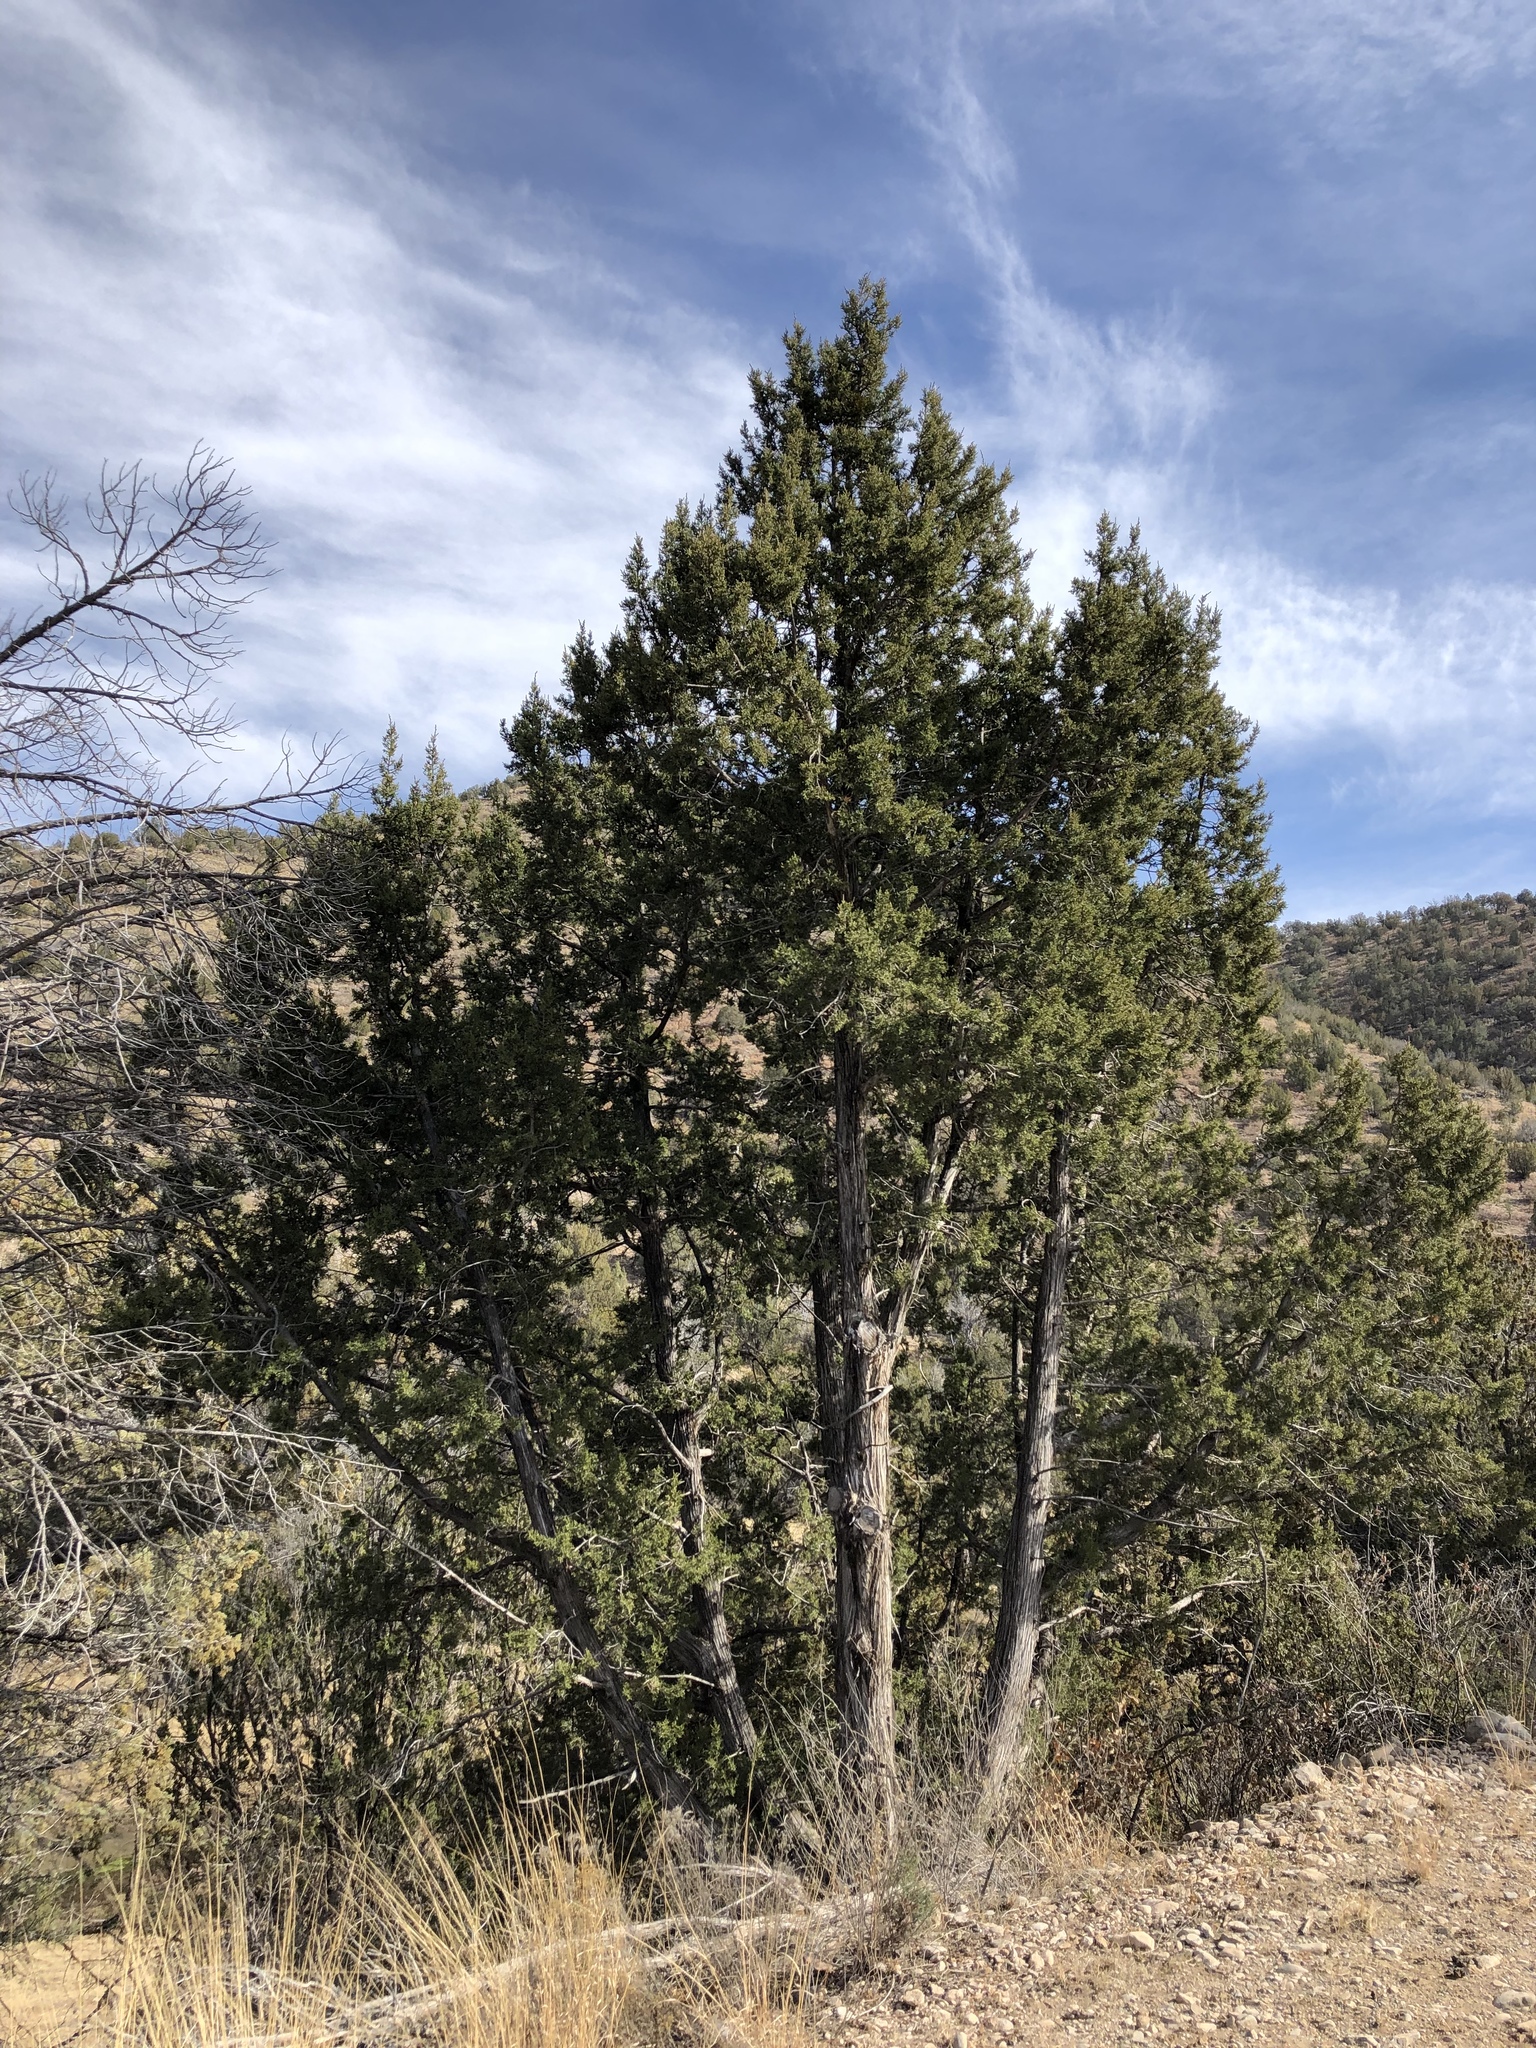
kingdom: Plantae
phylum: Tracheophyta
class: Pinopsida
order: Pinales
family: Cupressaceae
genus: Juniperus
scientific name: Juniperus monosperma
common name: One-seed juniper
